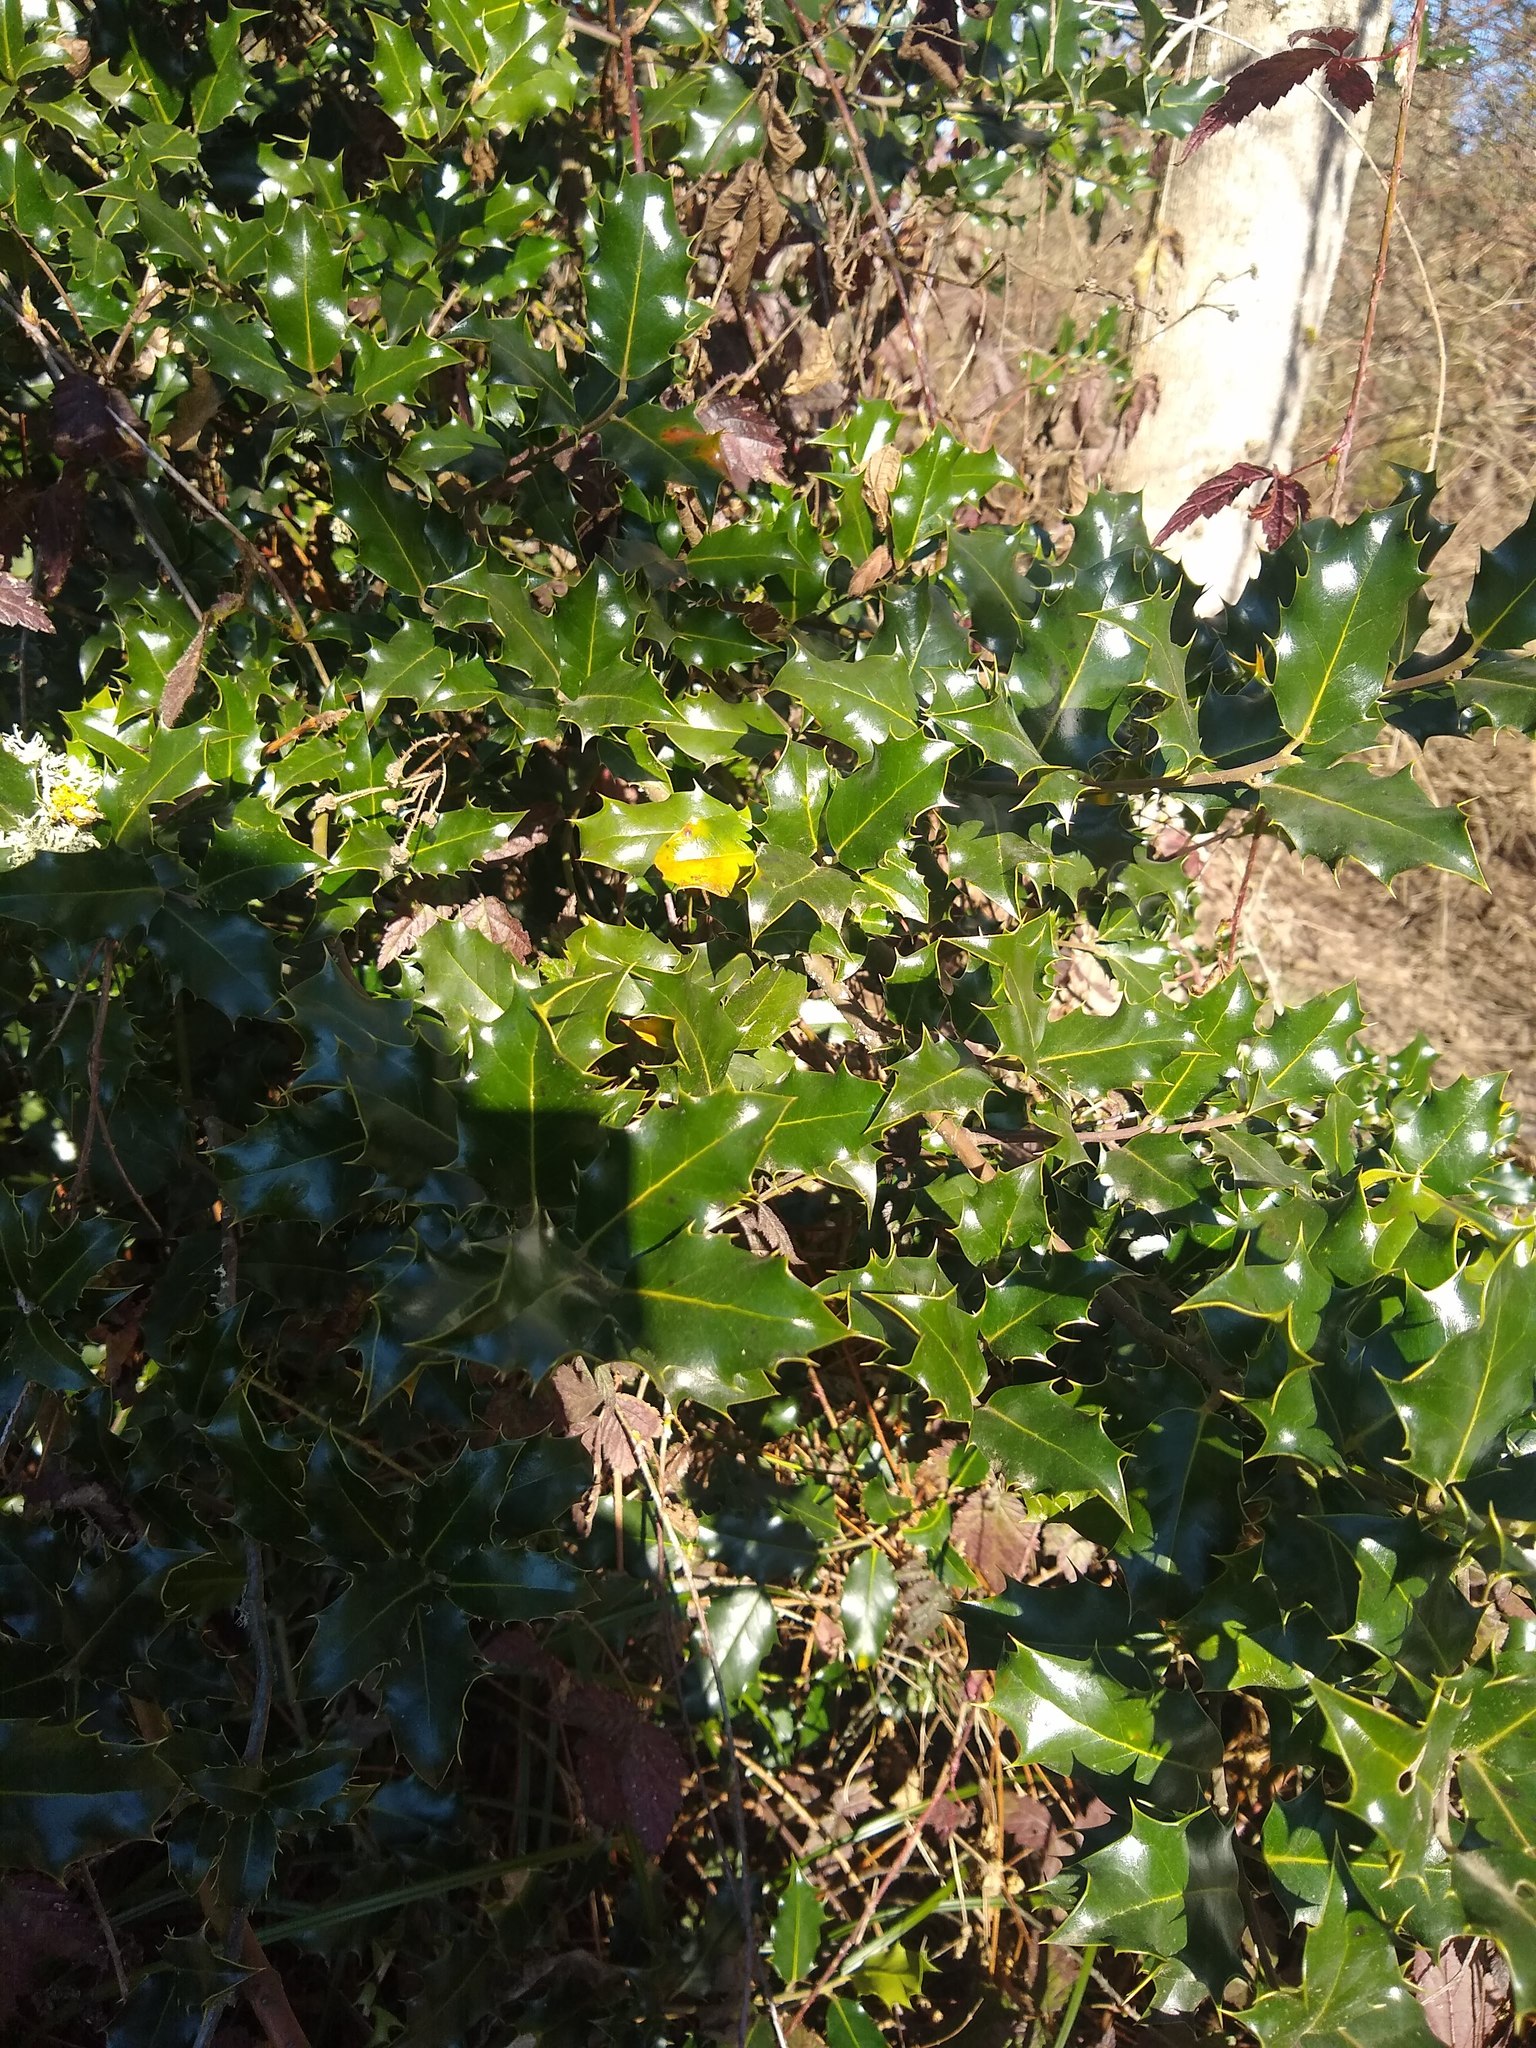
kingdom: Plantae
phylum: Tracheophyta
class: Magnoliopsida
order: Aquifoliales
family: Aquifoliaceae
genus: Ilex
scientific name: Ilex aquifolium
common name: English holly
